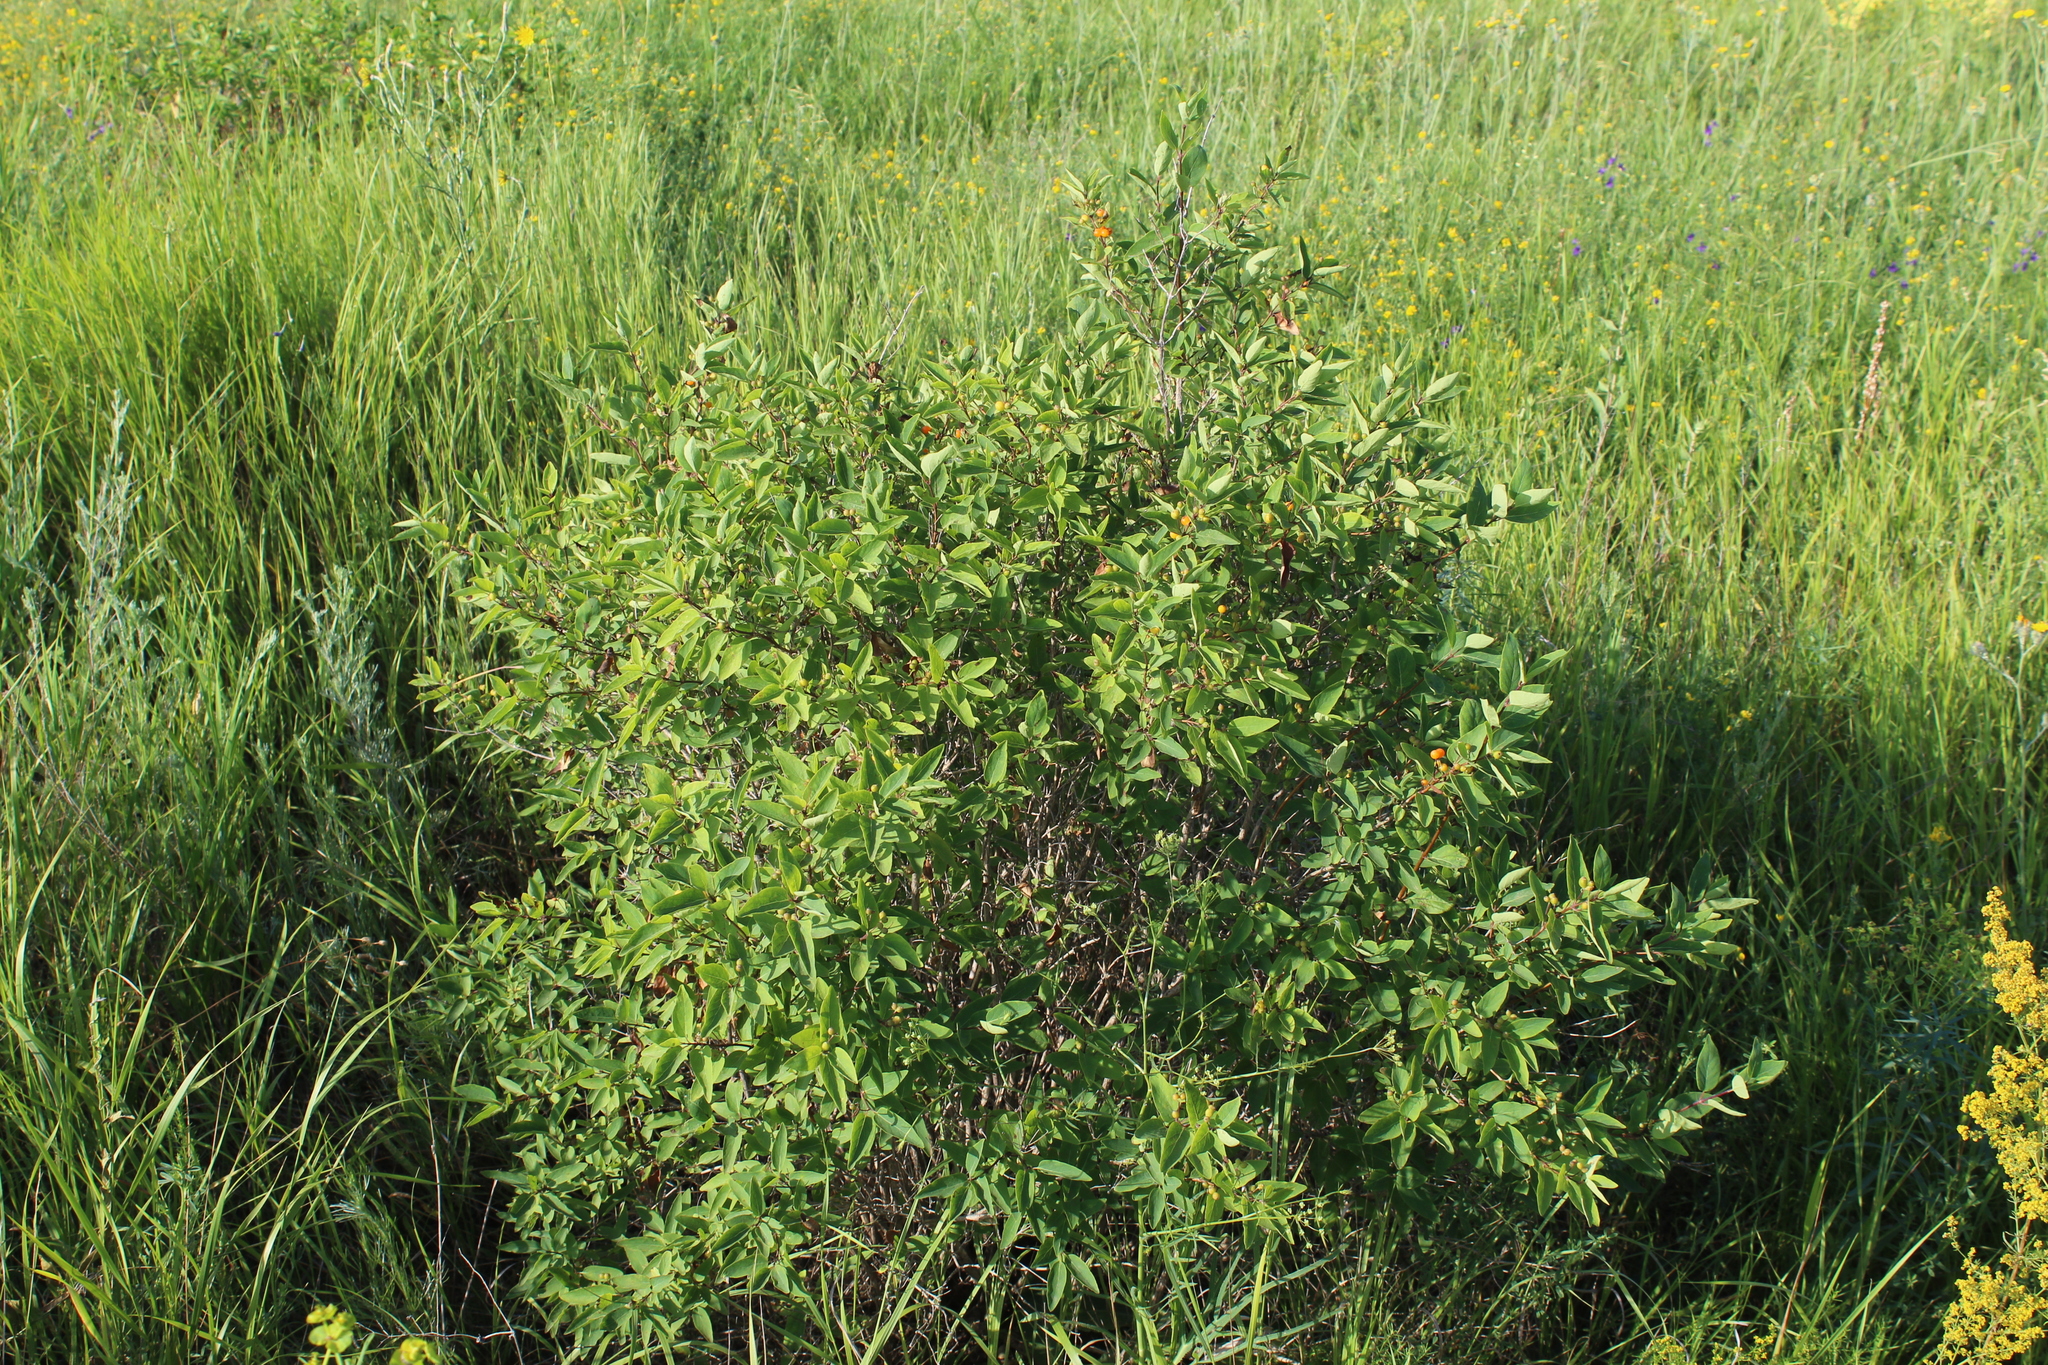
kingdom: Plantae
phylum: Tracheophyta
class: Magnoliopsida
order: Dipsacales
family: Caprifoliaceae
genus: Lonicera
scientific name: Lonicera tatarica
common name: Tatarian honeysuckle
